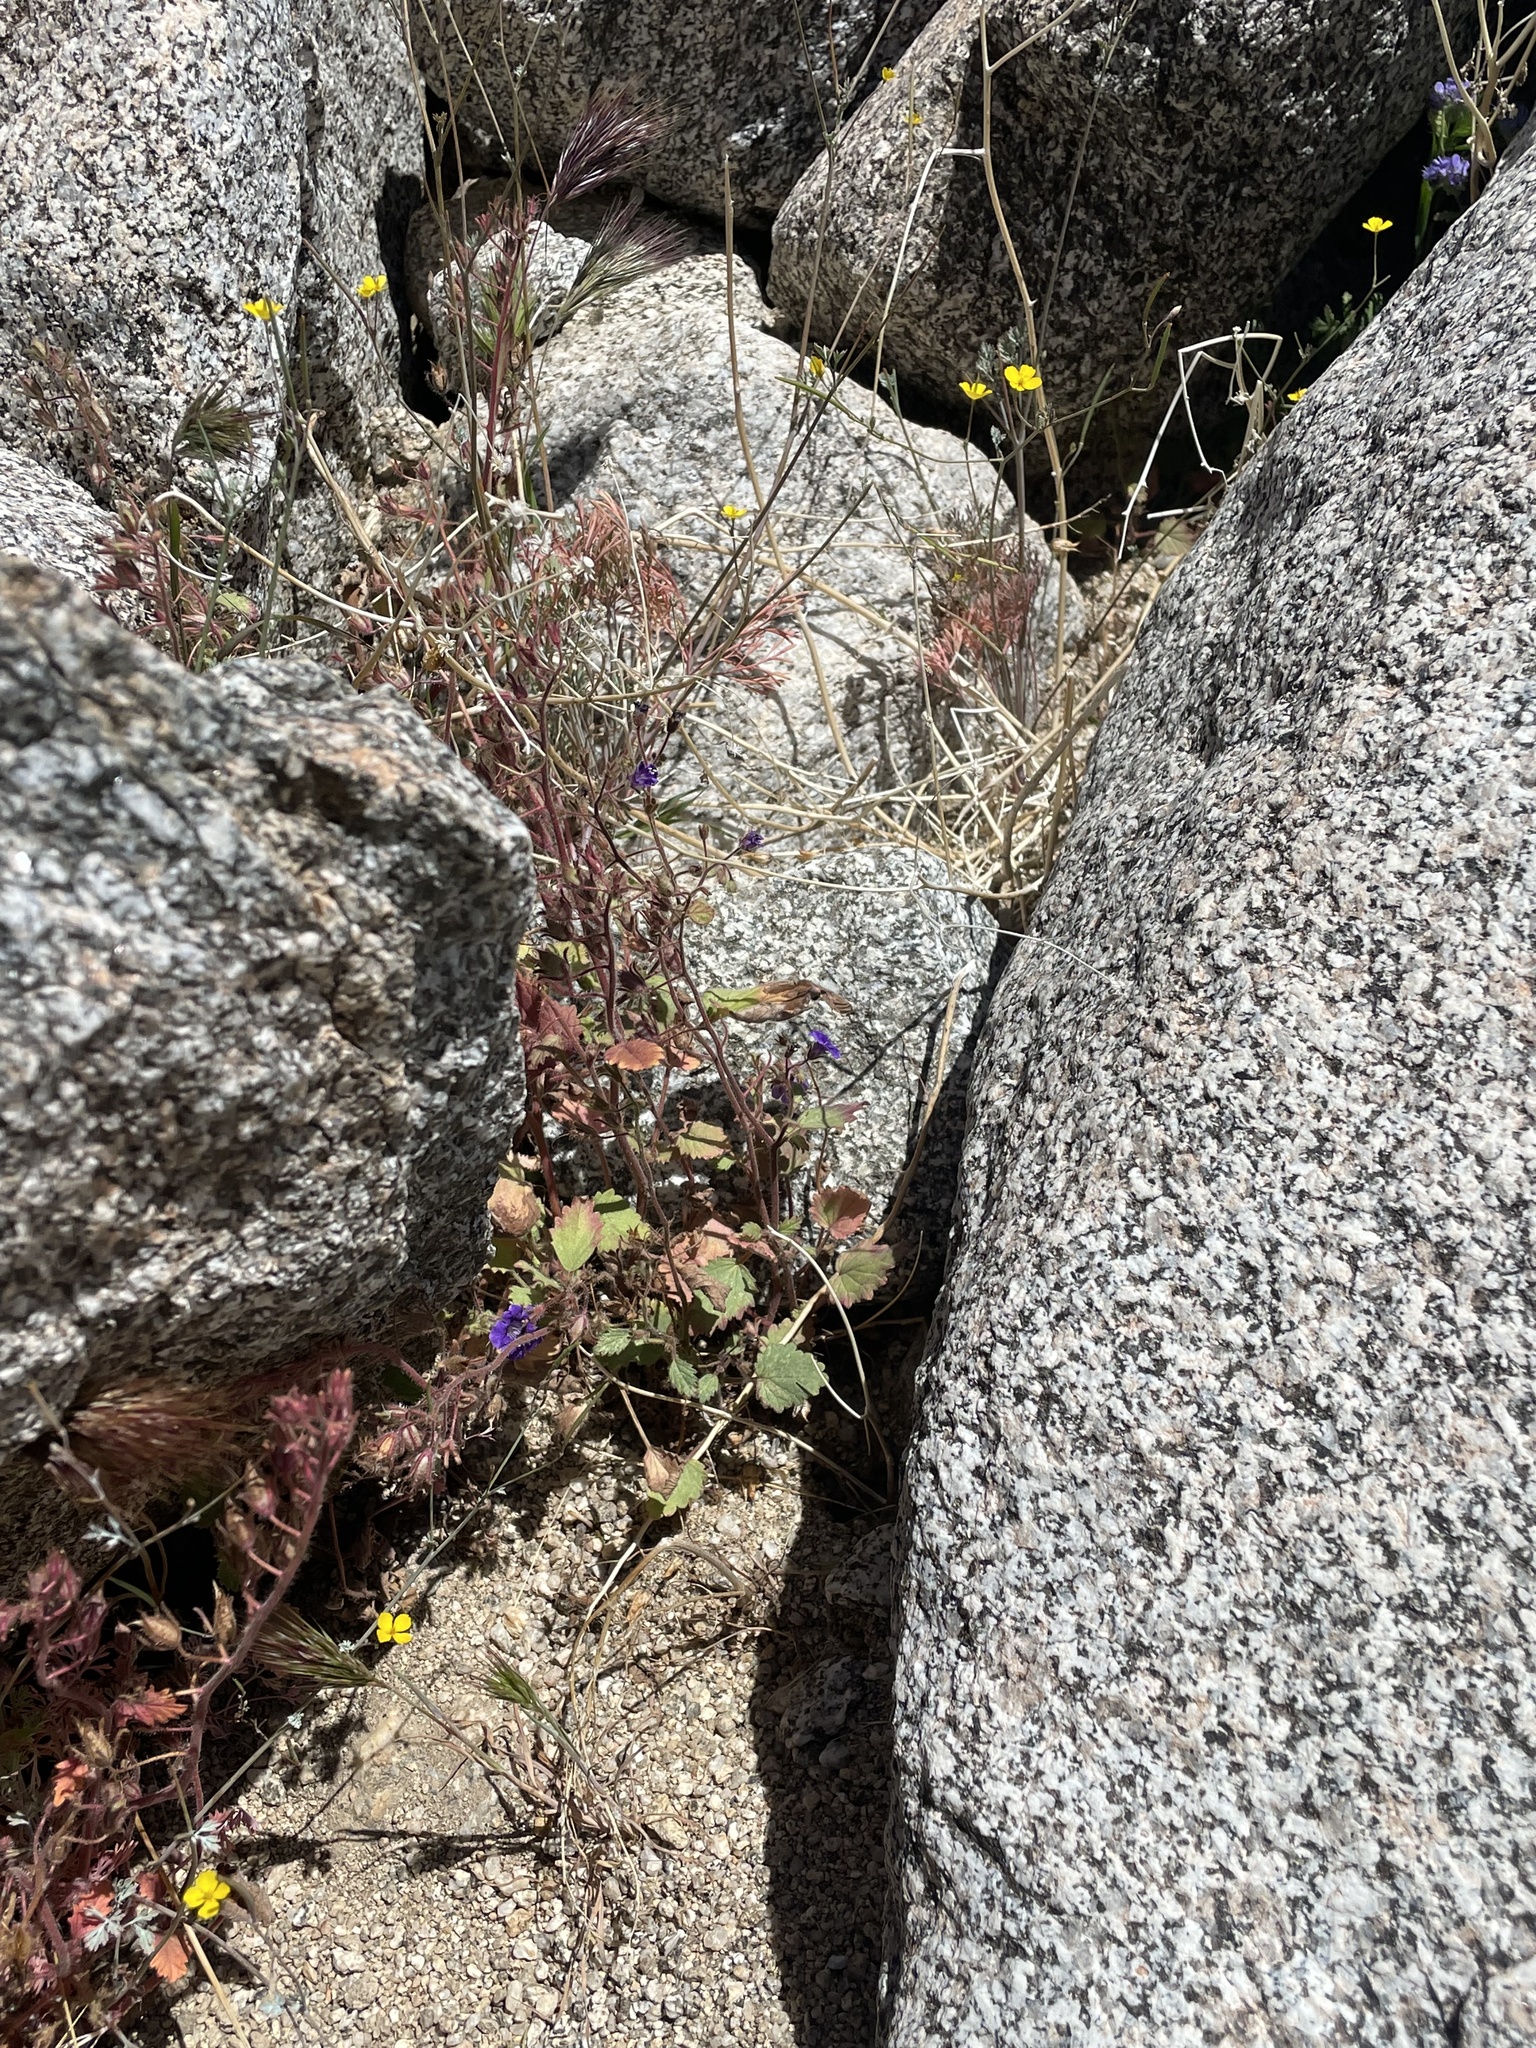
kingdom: Plantae
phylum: Tracheophyta
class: Magnoliopsida
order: Boraginales
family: Hydrophyllaceae
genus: Phacelia
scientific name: Phacelia minor
